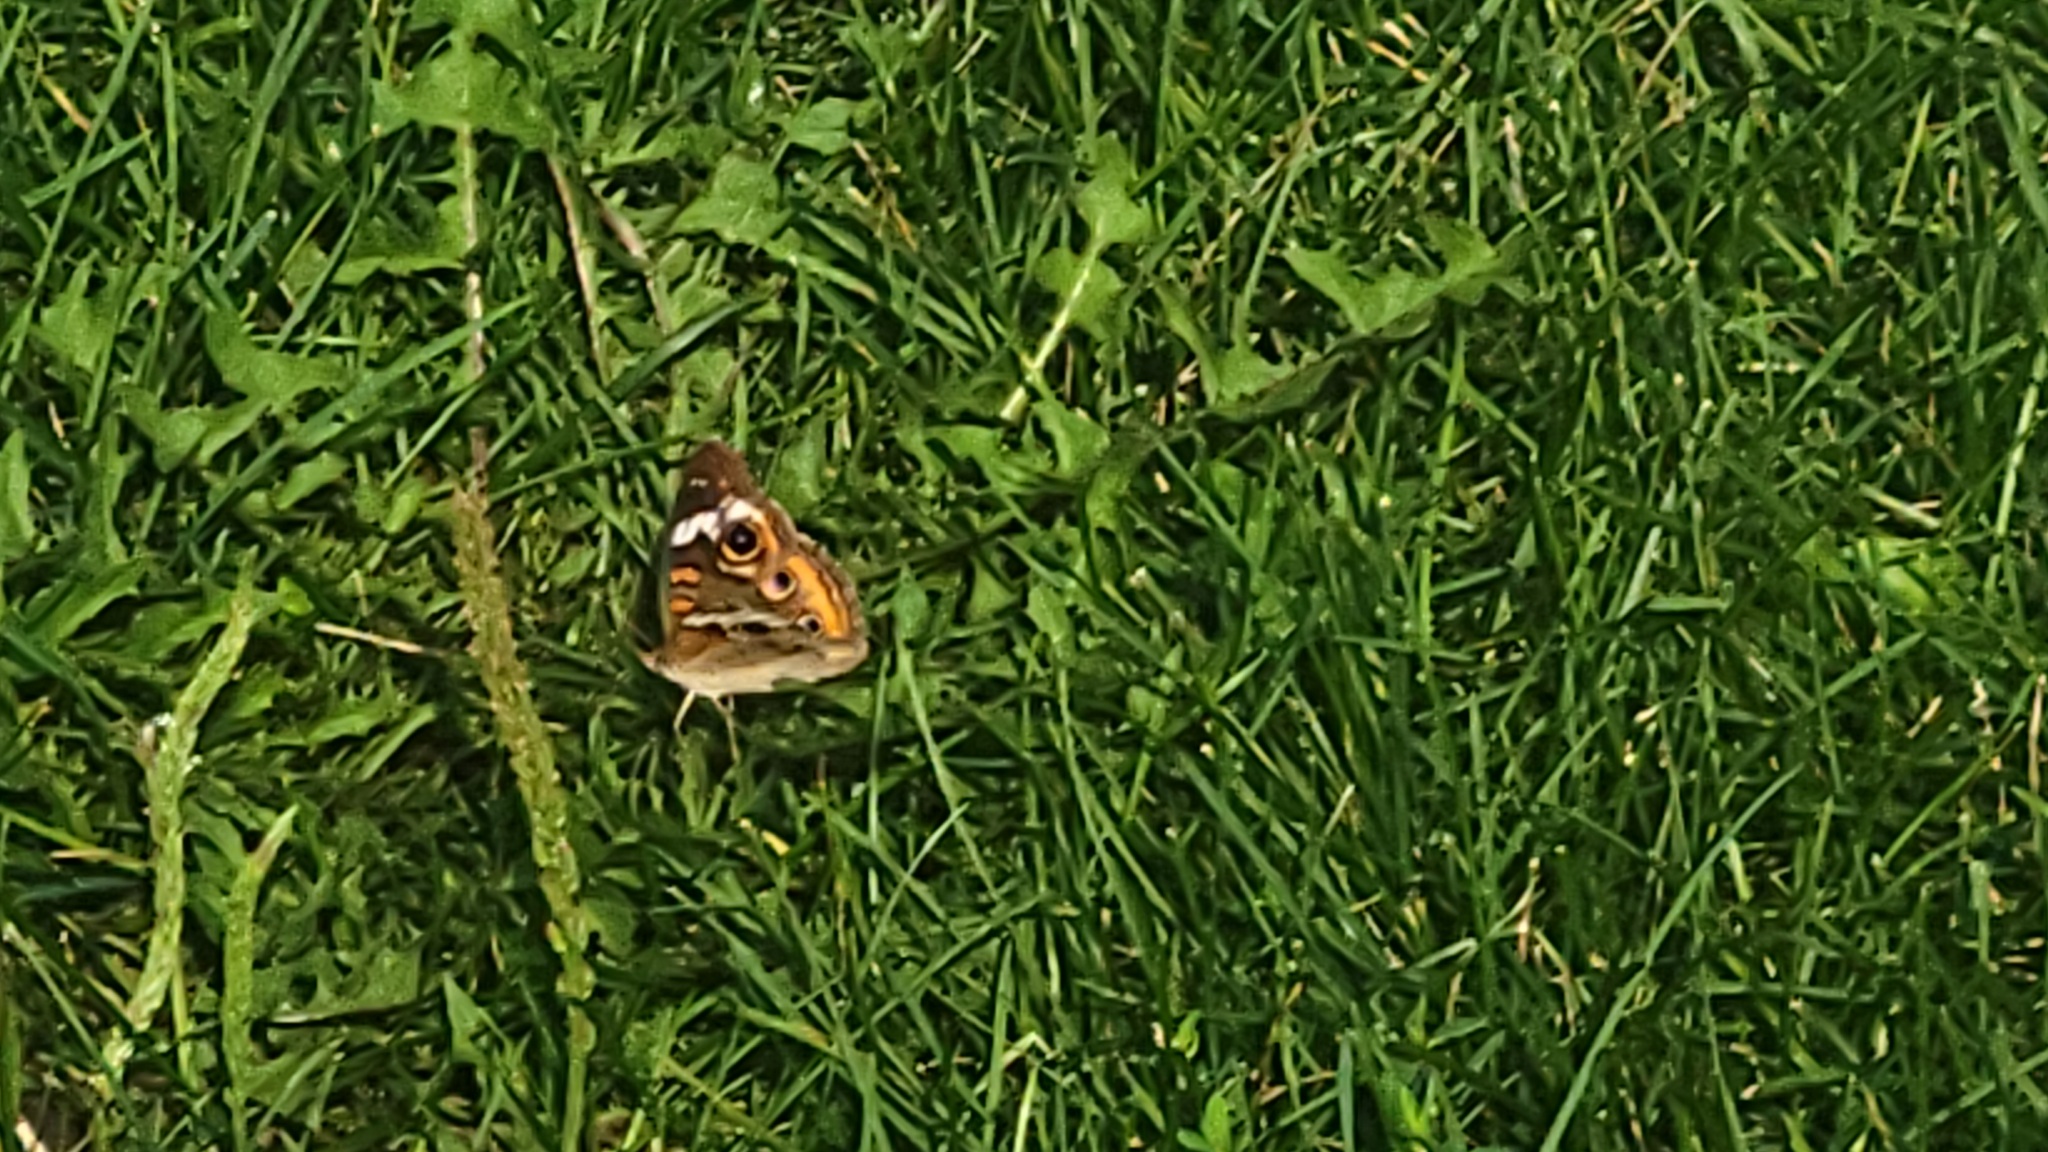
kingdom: Animalia
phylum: Arthropoda
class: Insecta
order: Lepidoptera
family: Nymphalidae
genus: Junonia
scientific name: Junonia coenia
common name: Common buckeye
